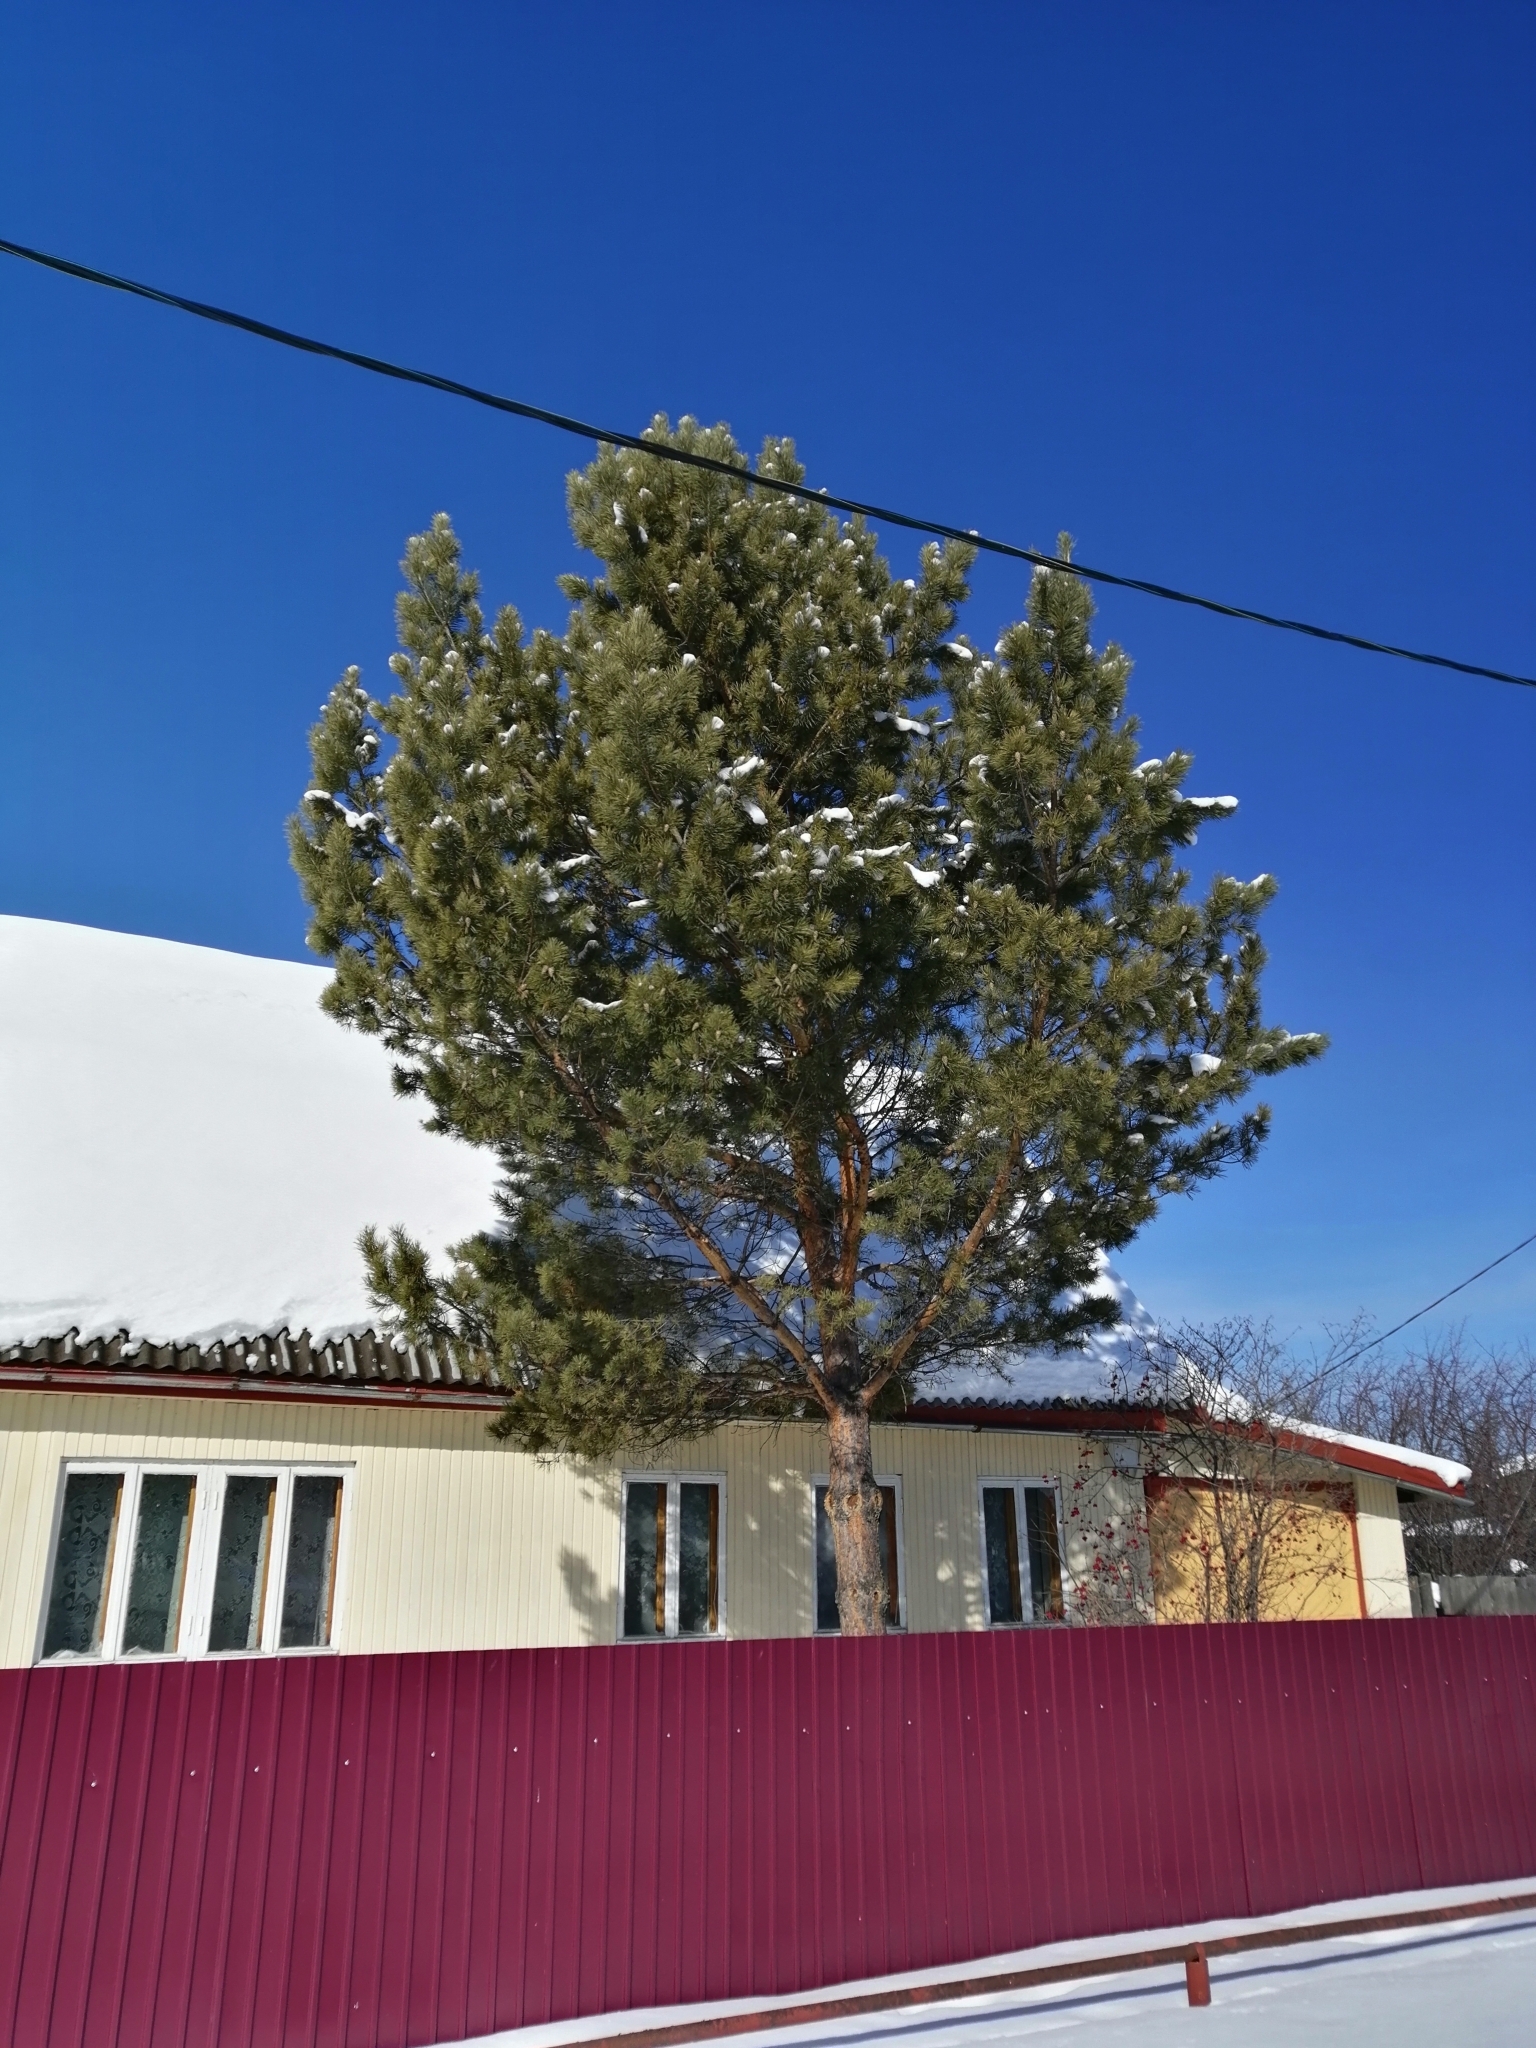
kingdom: Plantae
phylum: Tracheophyta
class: Pinopsida
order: Pinales
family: Pinaceae
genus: Pinus
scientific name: Pinus sylvestris
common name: Scots pine
